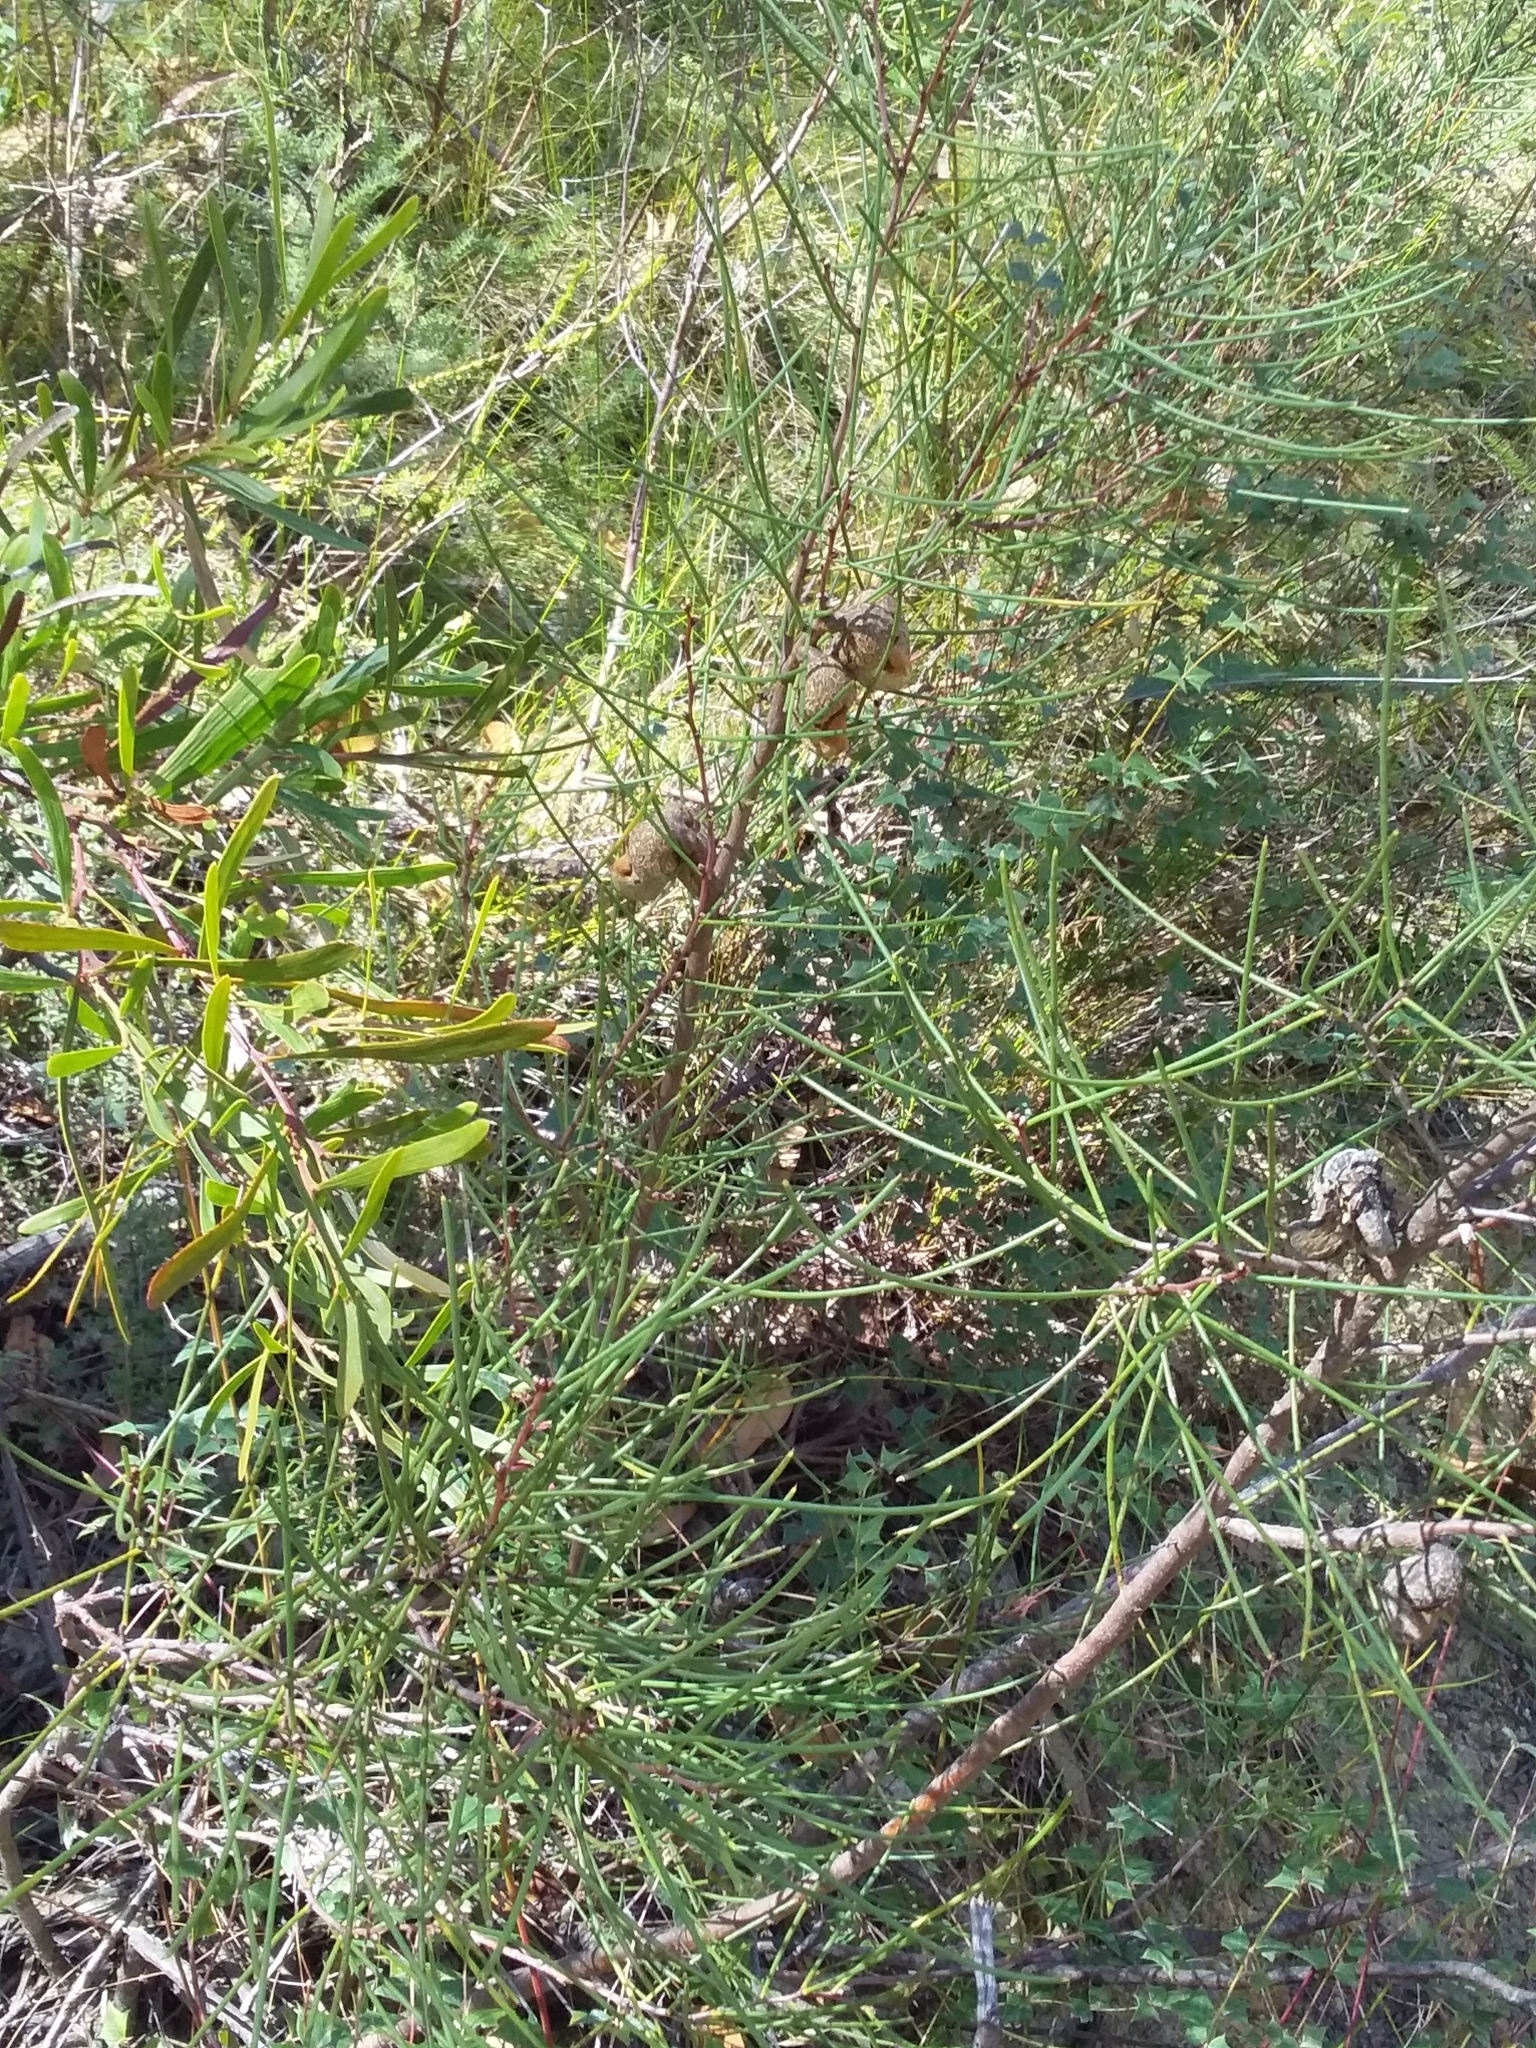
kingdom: Plantae
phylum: Tracheophyta
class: Magnoliopsida
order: Proteales
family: Proteaceae
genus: Hakea
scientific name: Hakea rostrata
